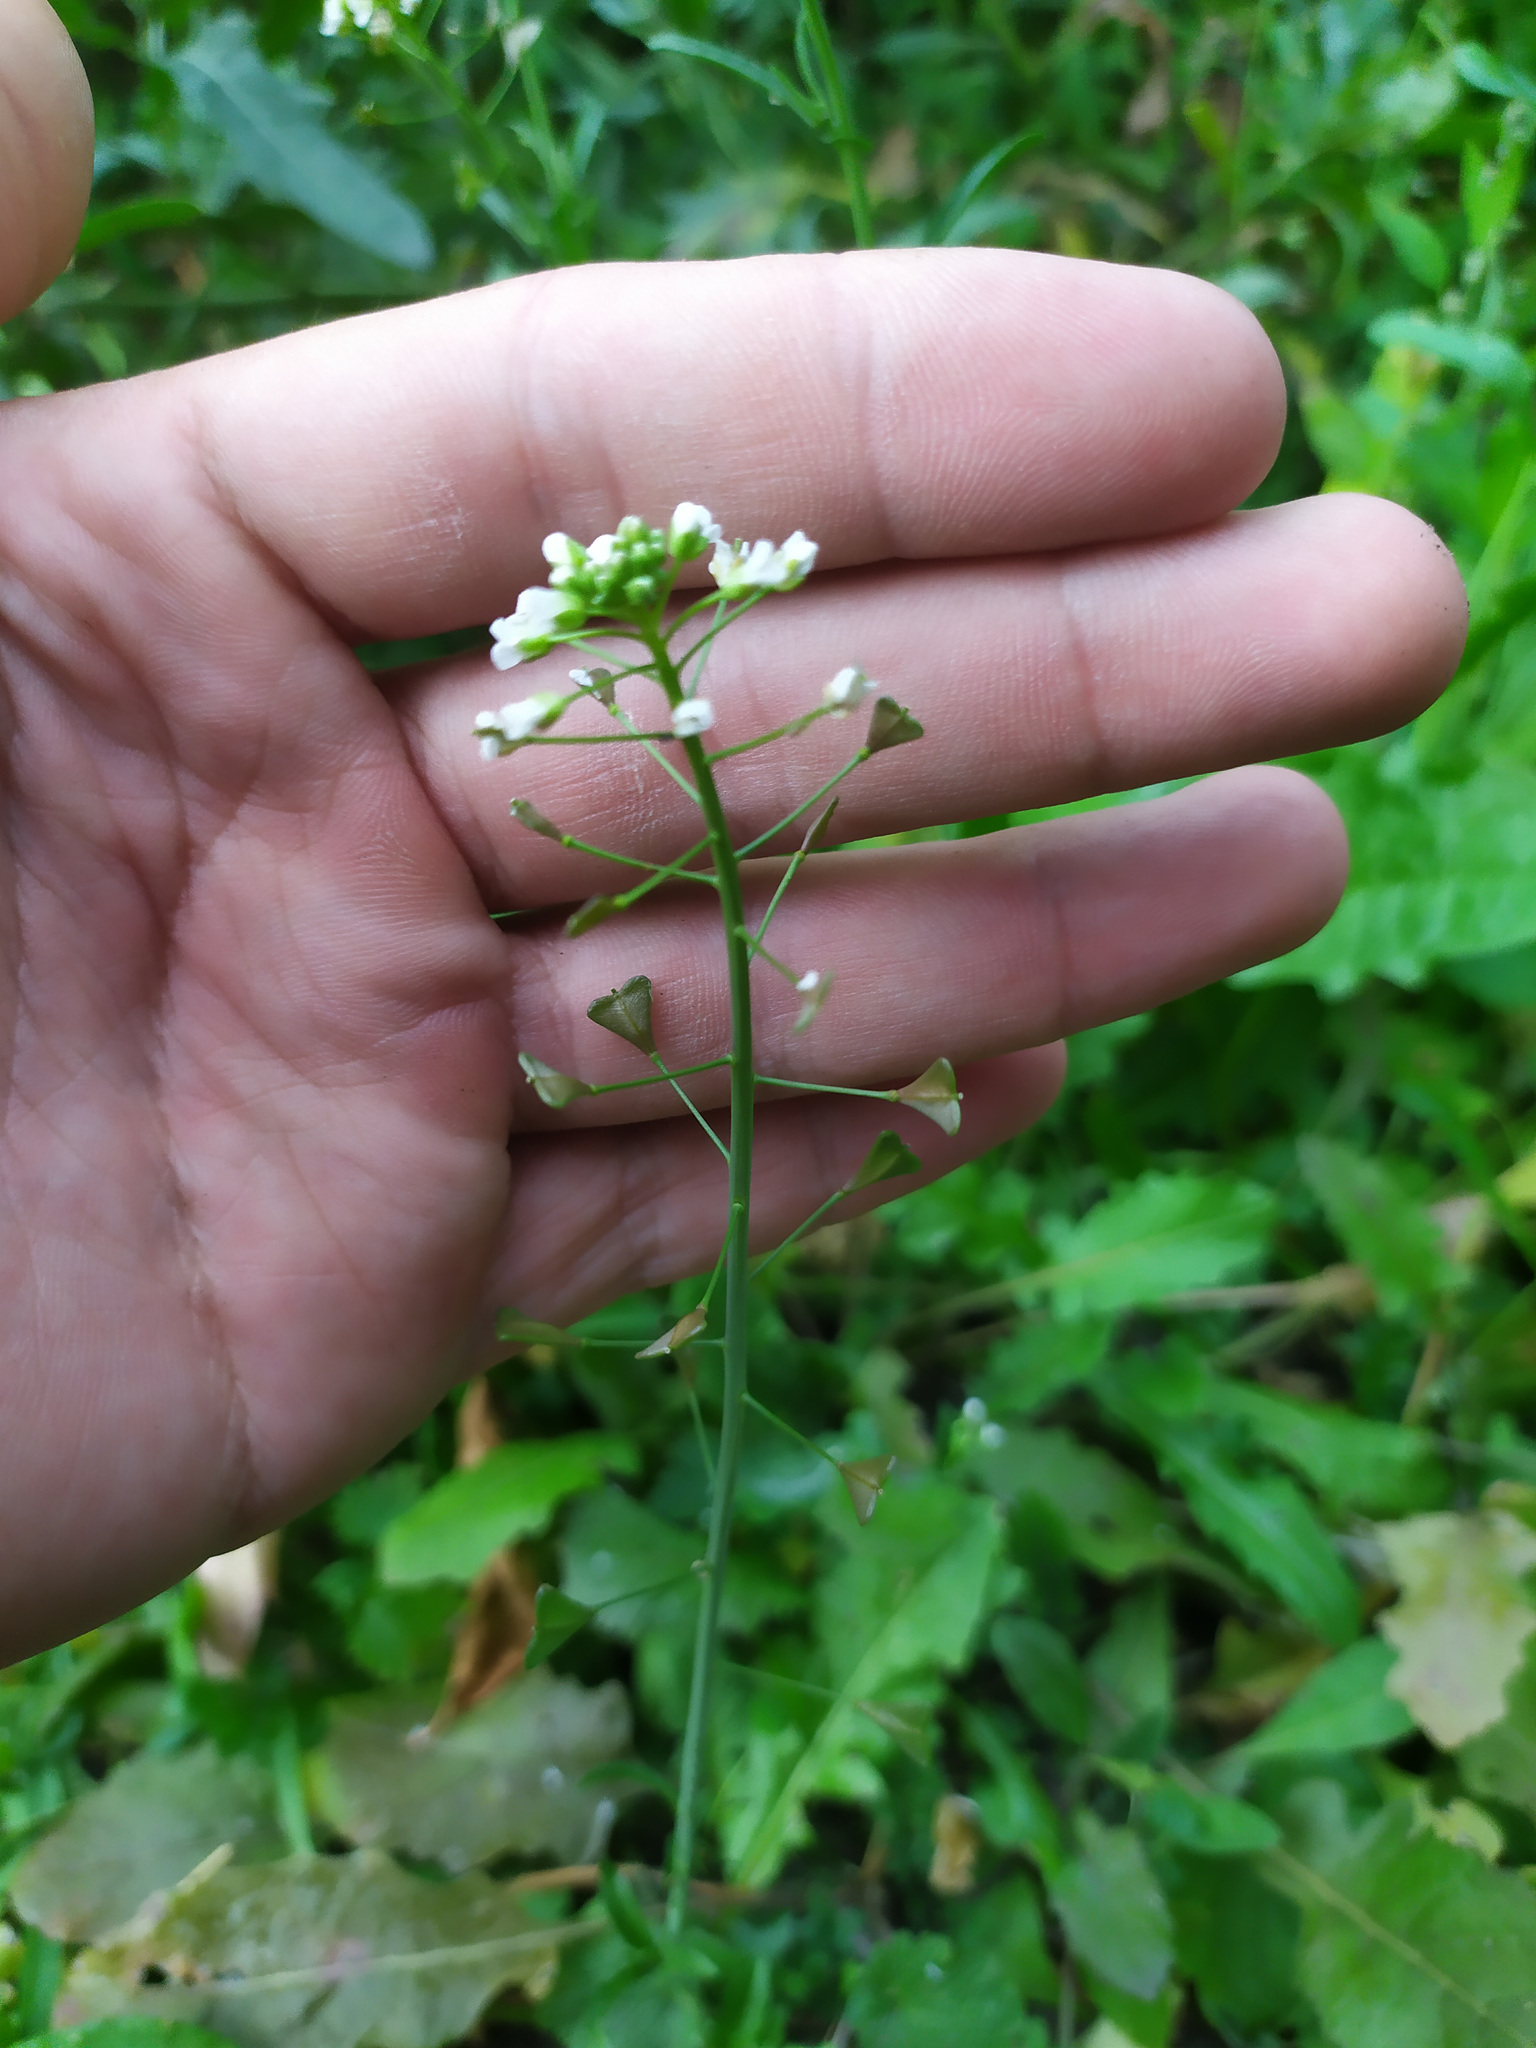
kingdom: Plantae
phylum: Tracheophyta
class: Magnoliopsida
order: Brassicales
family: Brassicaceae
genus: Capsella
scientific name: Capsella bursa-pastoris
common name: Shepherd's purse
